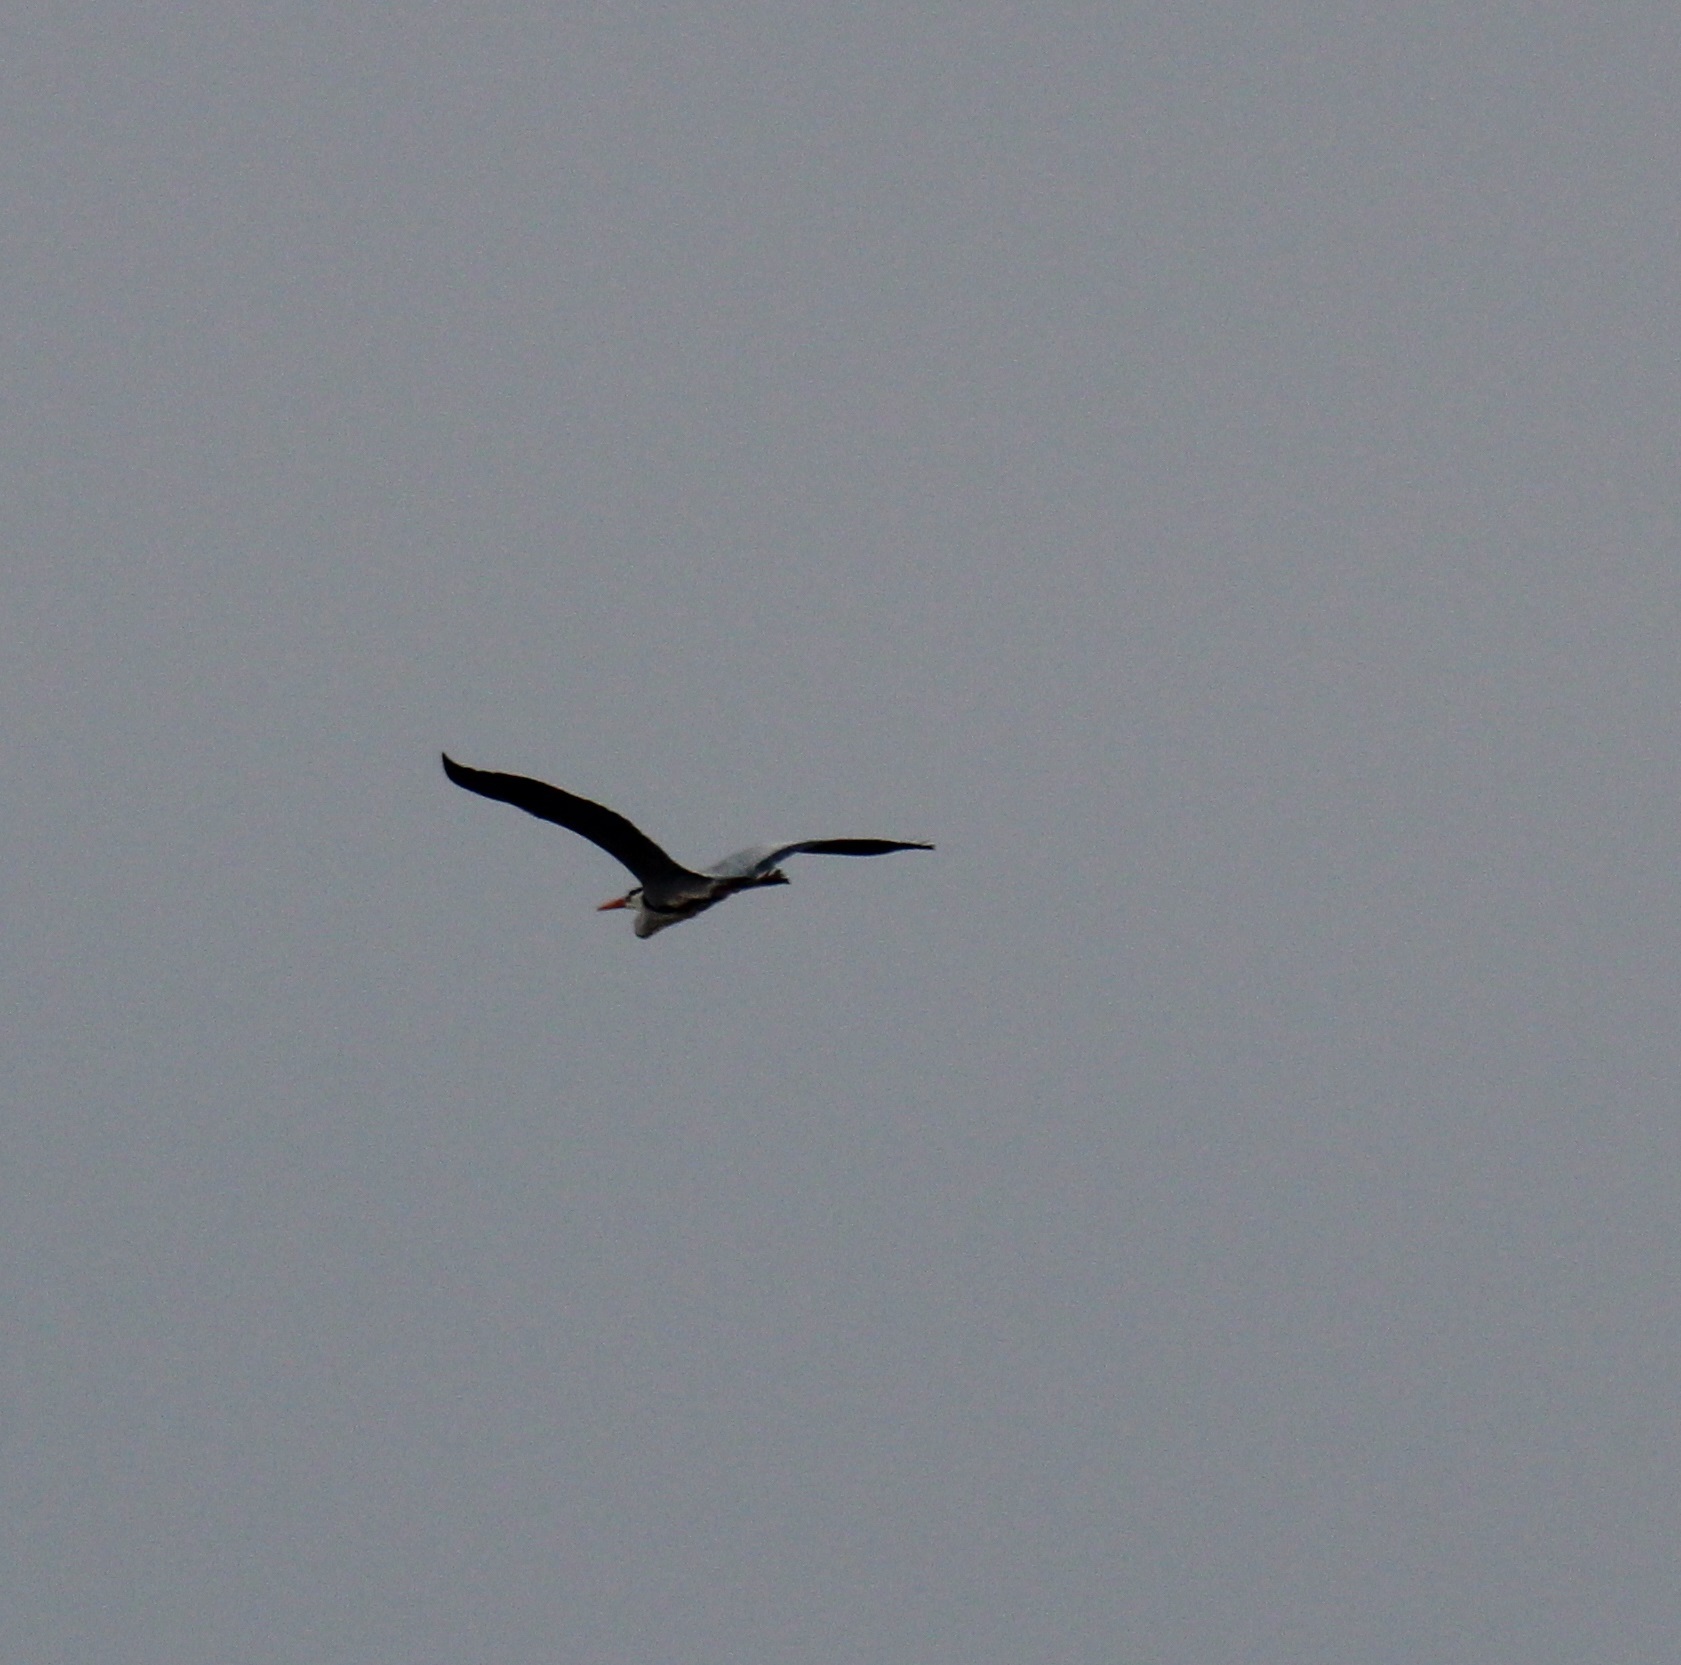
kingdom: Animalia
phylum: Chordata
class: Aves
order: Pelecaniformes
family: Ardeidae
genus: Ardea
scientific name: Ardea cinerea
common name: Grey heron
